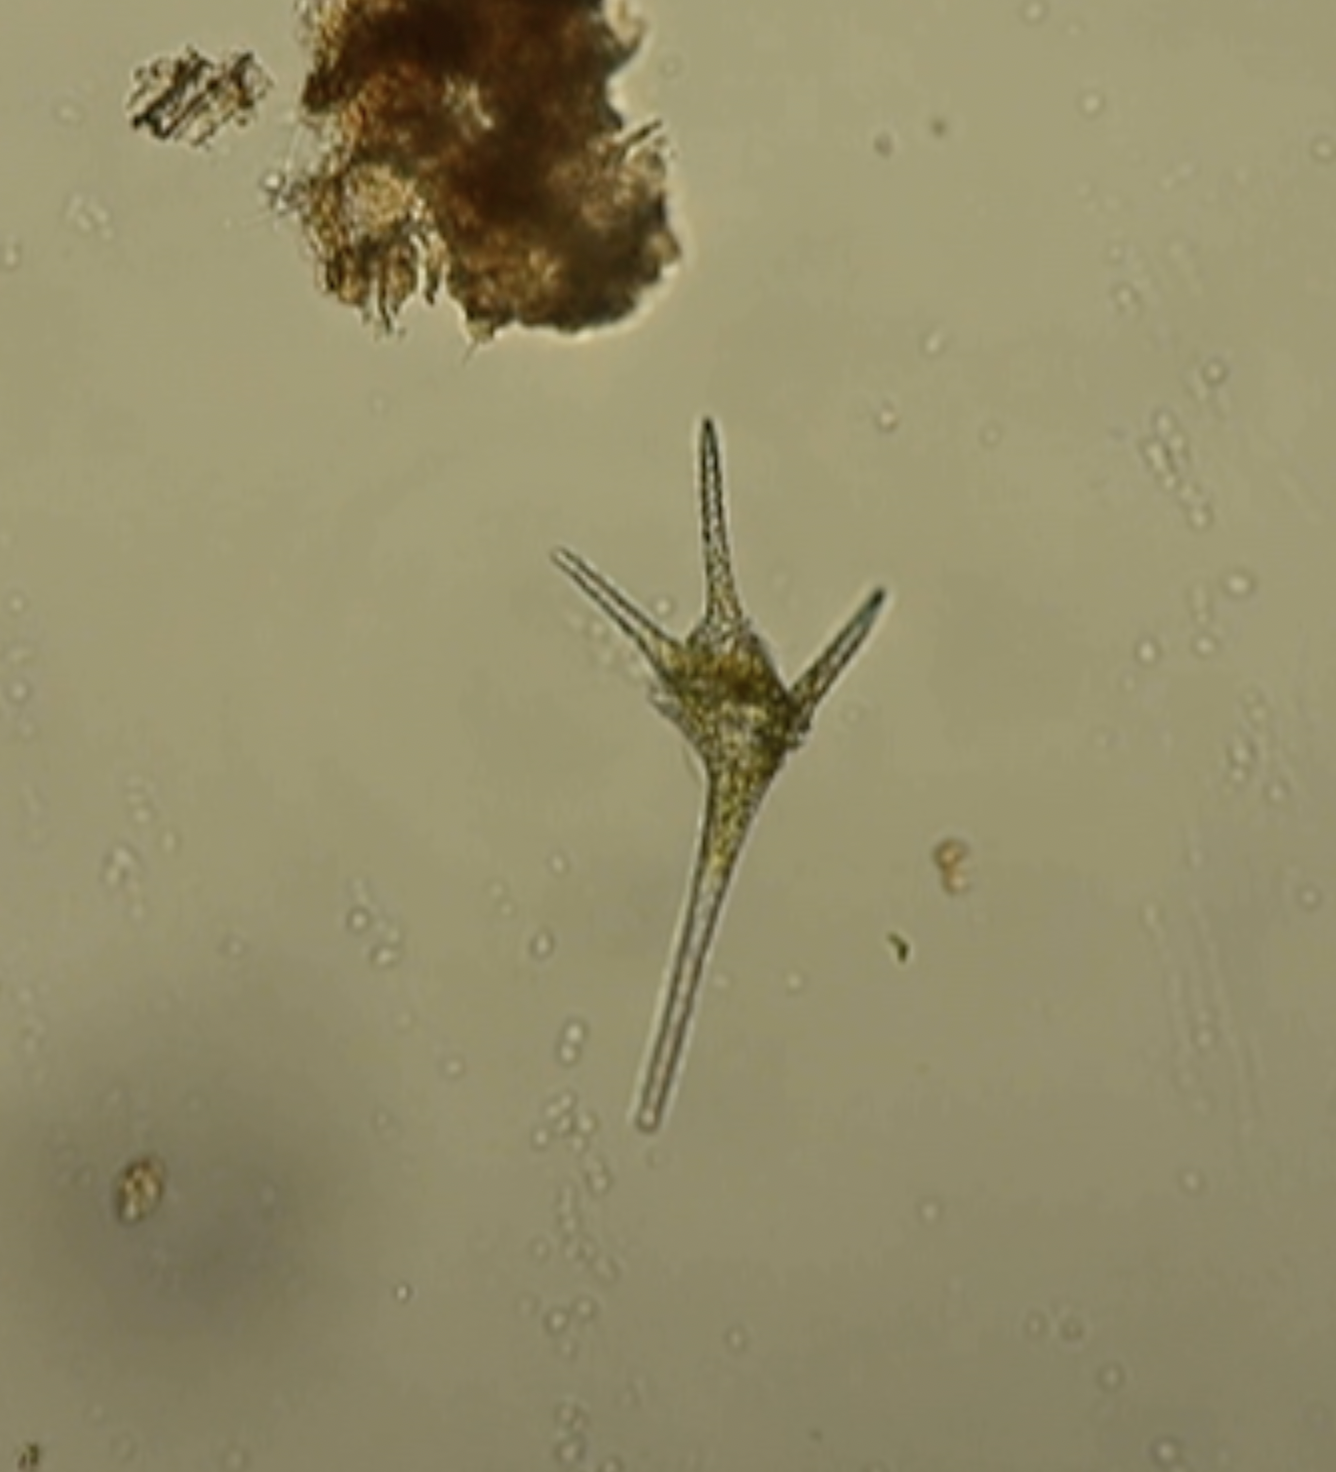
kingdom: Chromista
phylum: Myzozoa
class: Dinophyceae
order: Gonyaulacales
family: Ceratiaceae
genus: Ceratium
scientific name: Ceratium hirundinella
